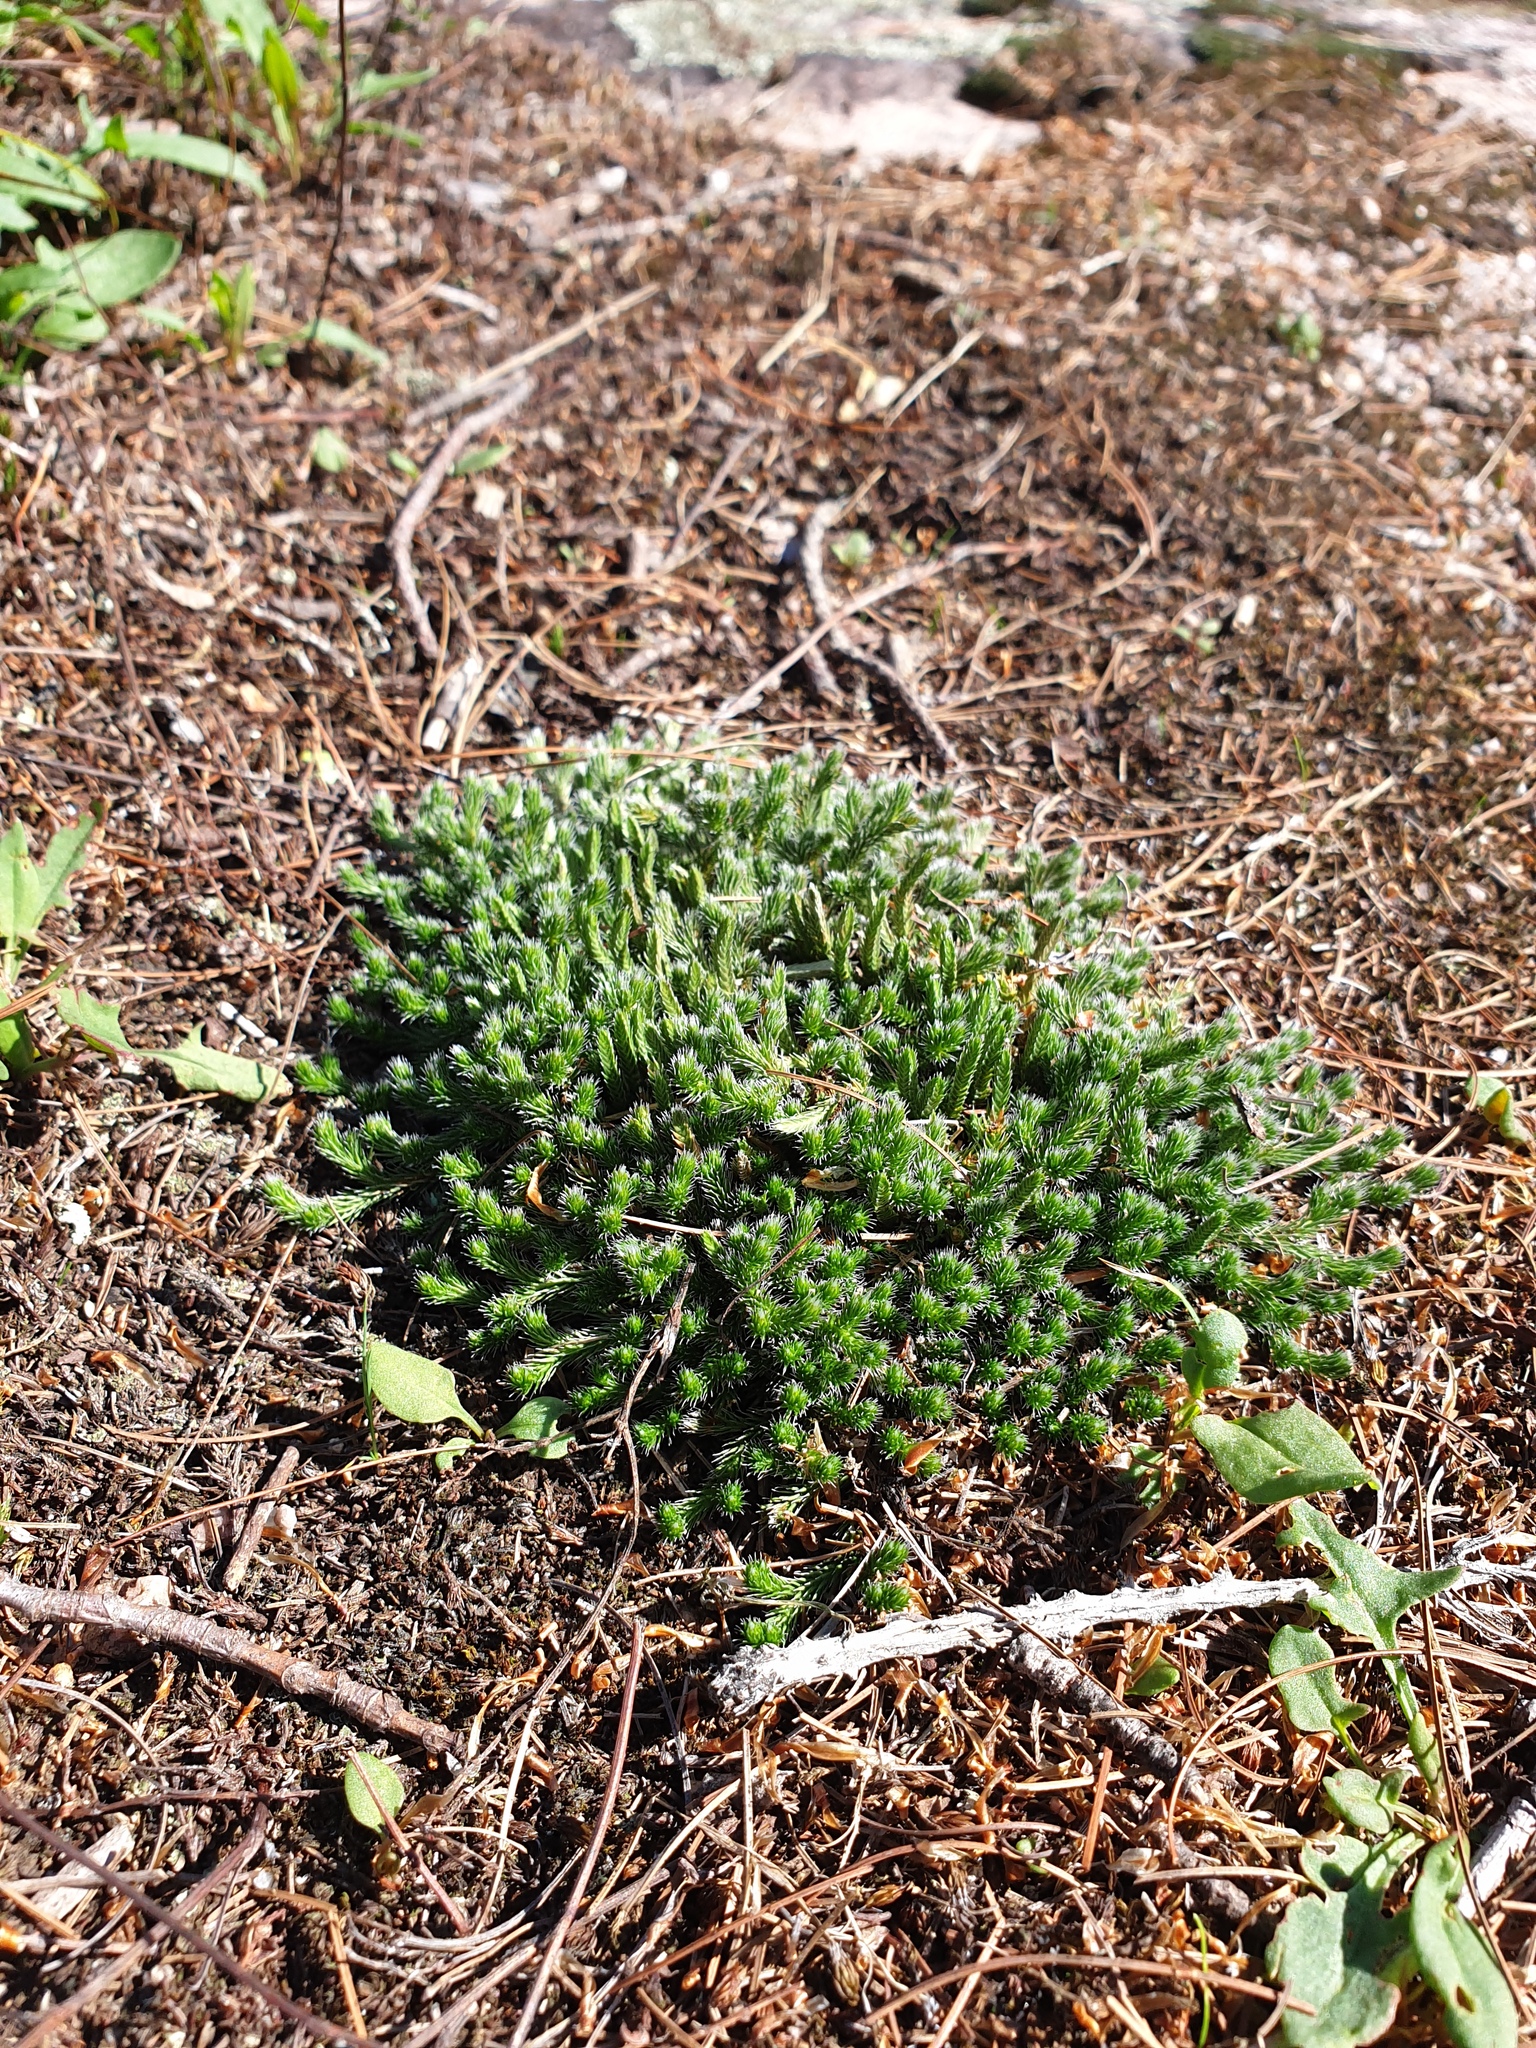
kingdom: Plantae
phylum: Tracheophyta
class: Lycopodiopsida
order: Selaginellales
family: Selaginellaceae
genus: Selaginella
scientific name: Selaginella rupestris
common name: Dwarf spikemoss
